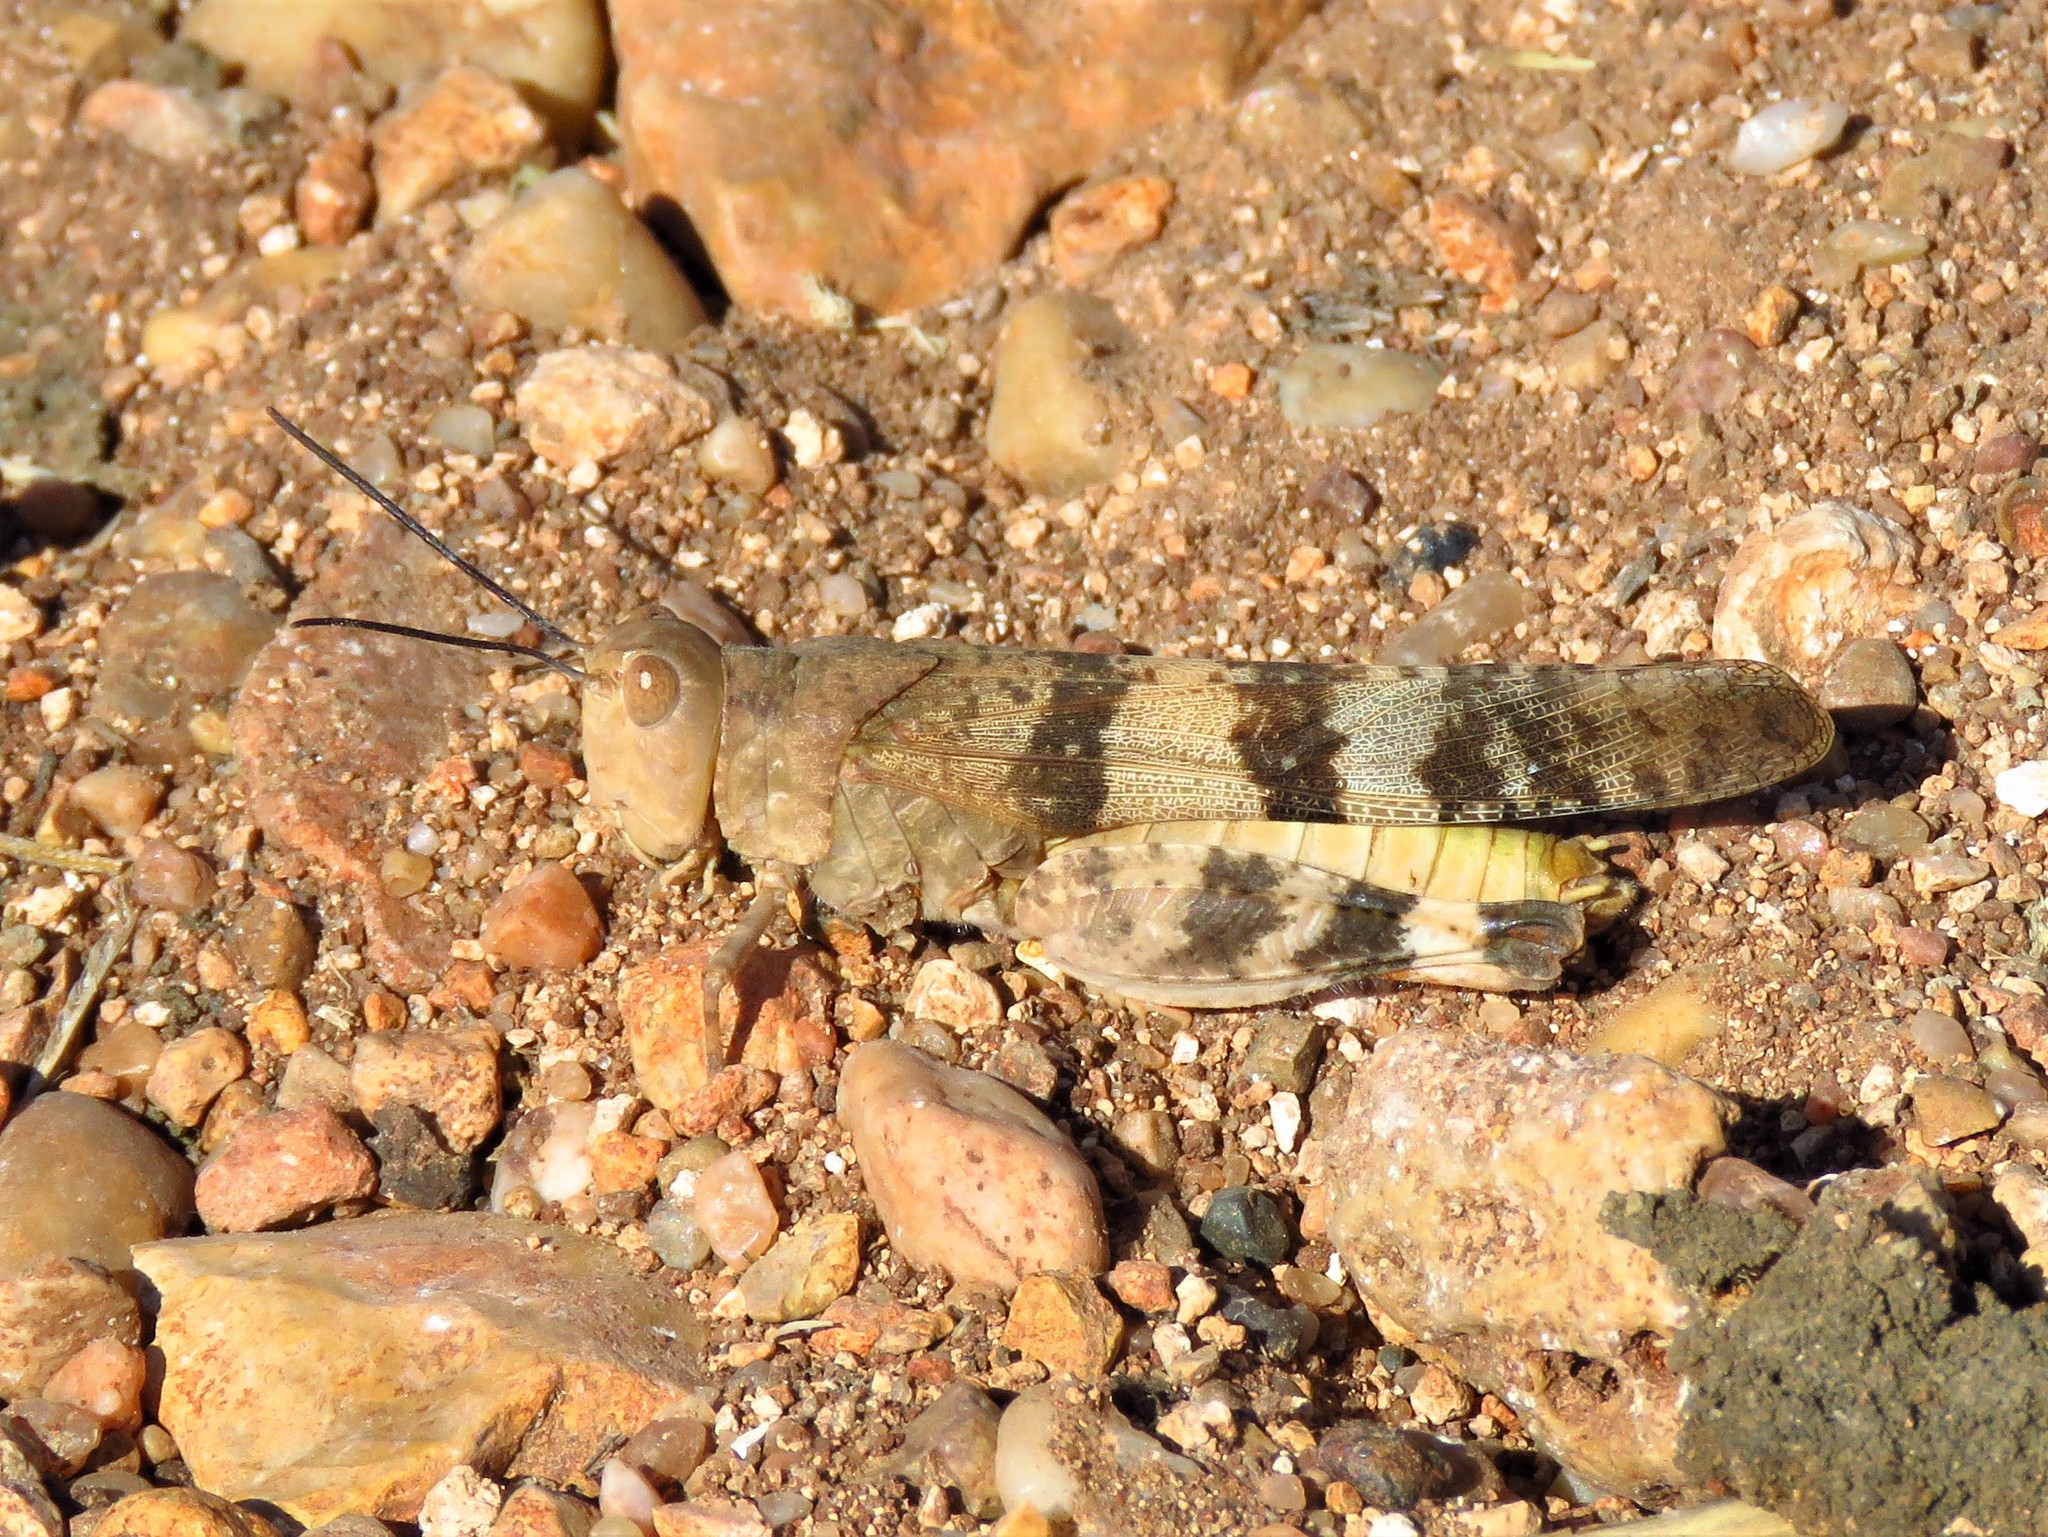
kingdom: Animalia
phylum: Arthropoda
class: Insecta
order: Orthoptera
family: Acrididae
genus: Spharagemon
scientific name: Spharagemon equale
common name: Orange-legged grasshopper
